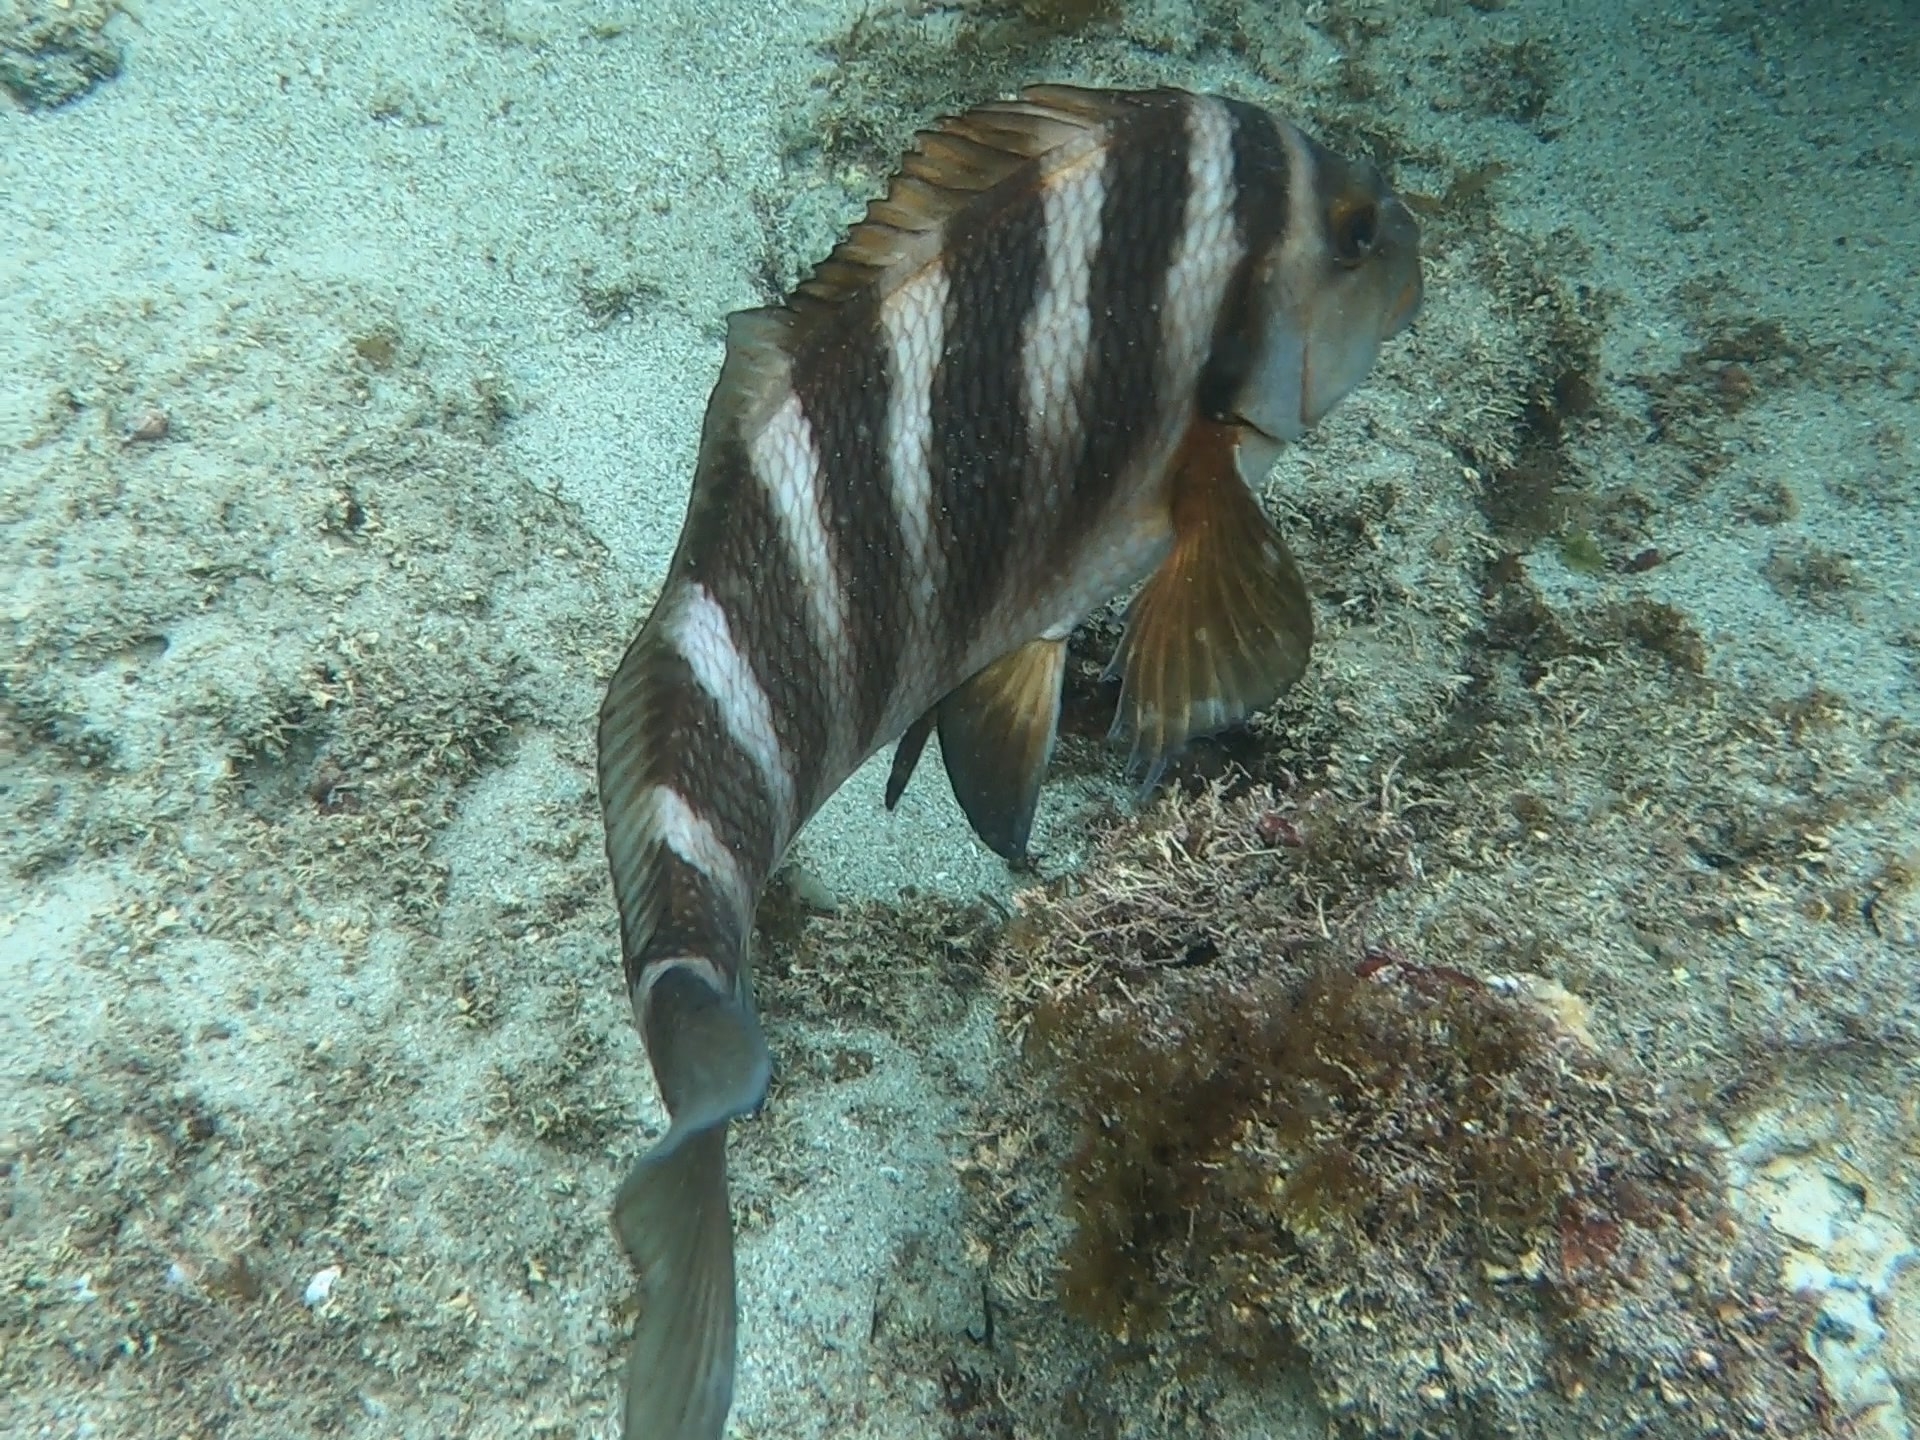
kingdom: Animalia
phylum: Chordata
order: Perciformes
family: Cheilodactylidae
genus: Cheilodactylus
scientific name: Cheilodactylus spectabilis
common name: Red moki
